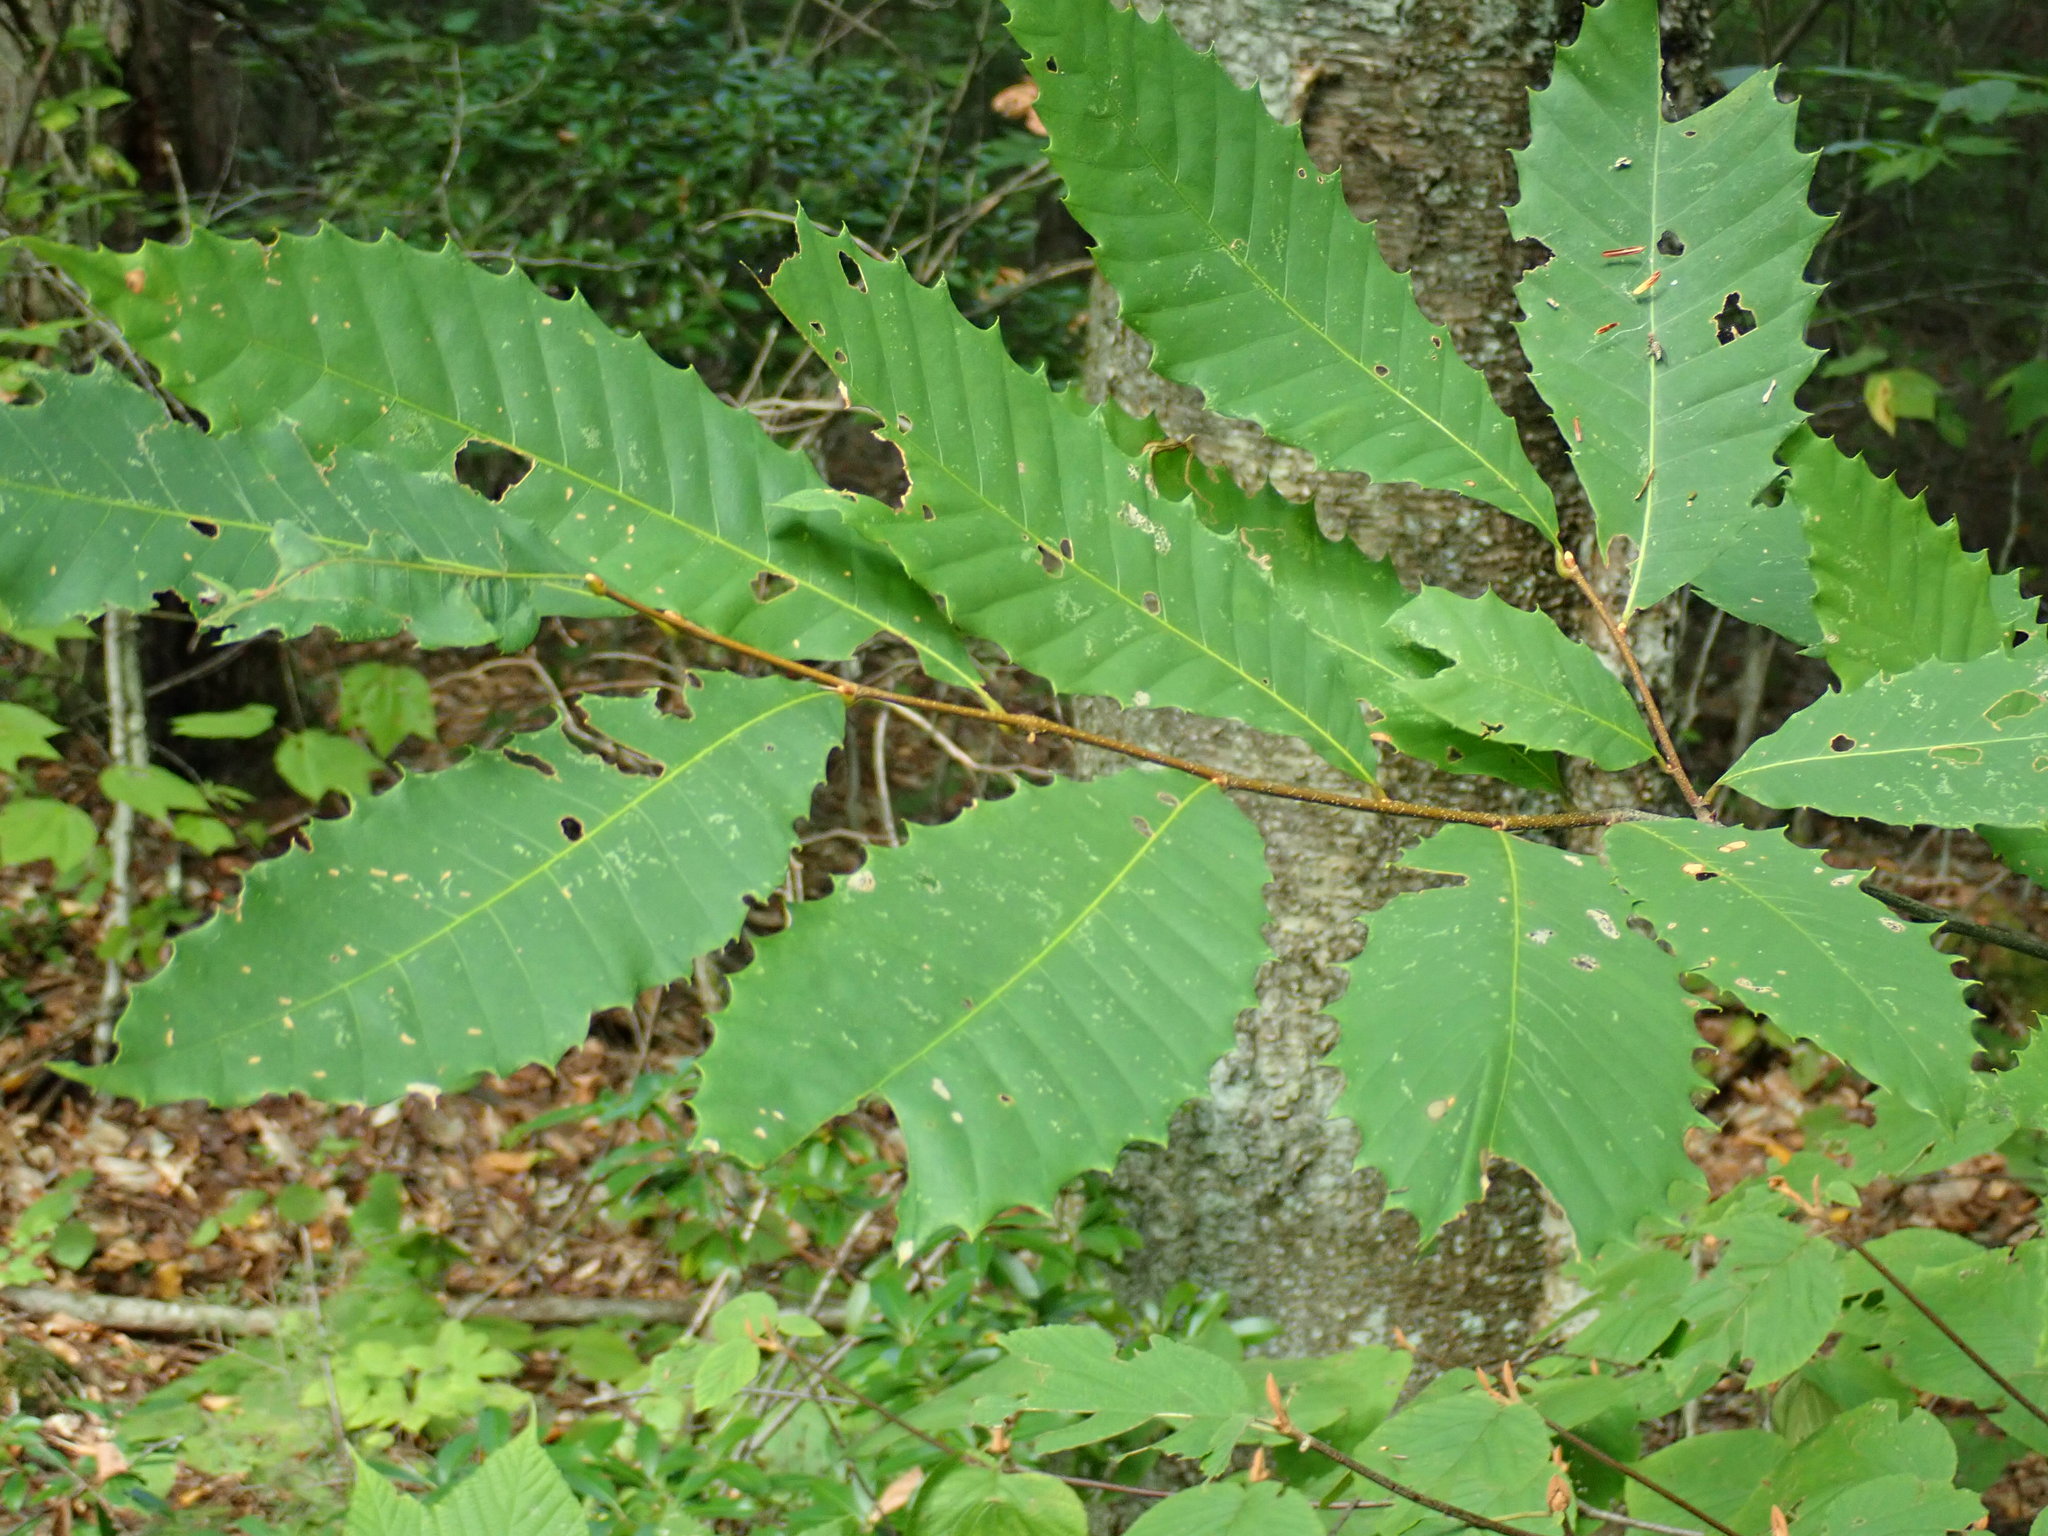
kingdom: Plantae
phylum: Tracheophyta
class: Magnoliopsida
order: Fagales
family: Fagaceae
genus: Castanea
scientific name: Castanea dentata
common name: American chestnut
